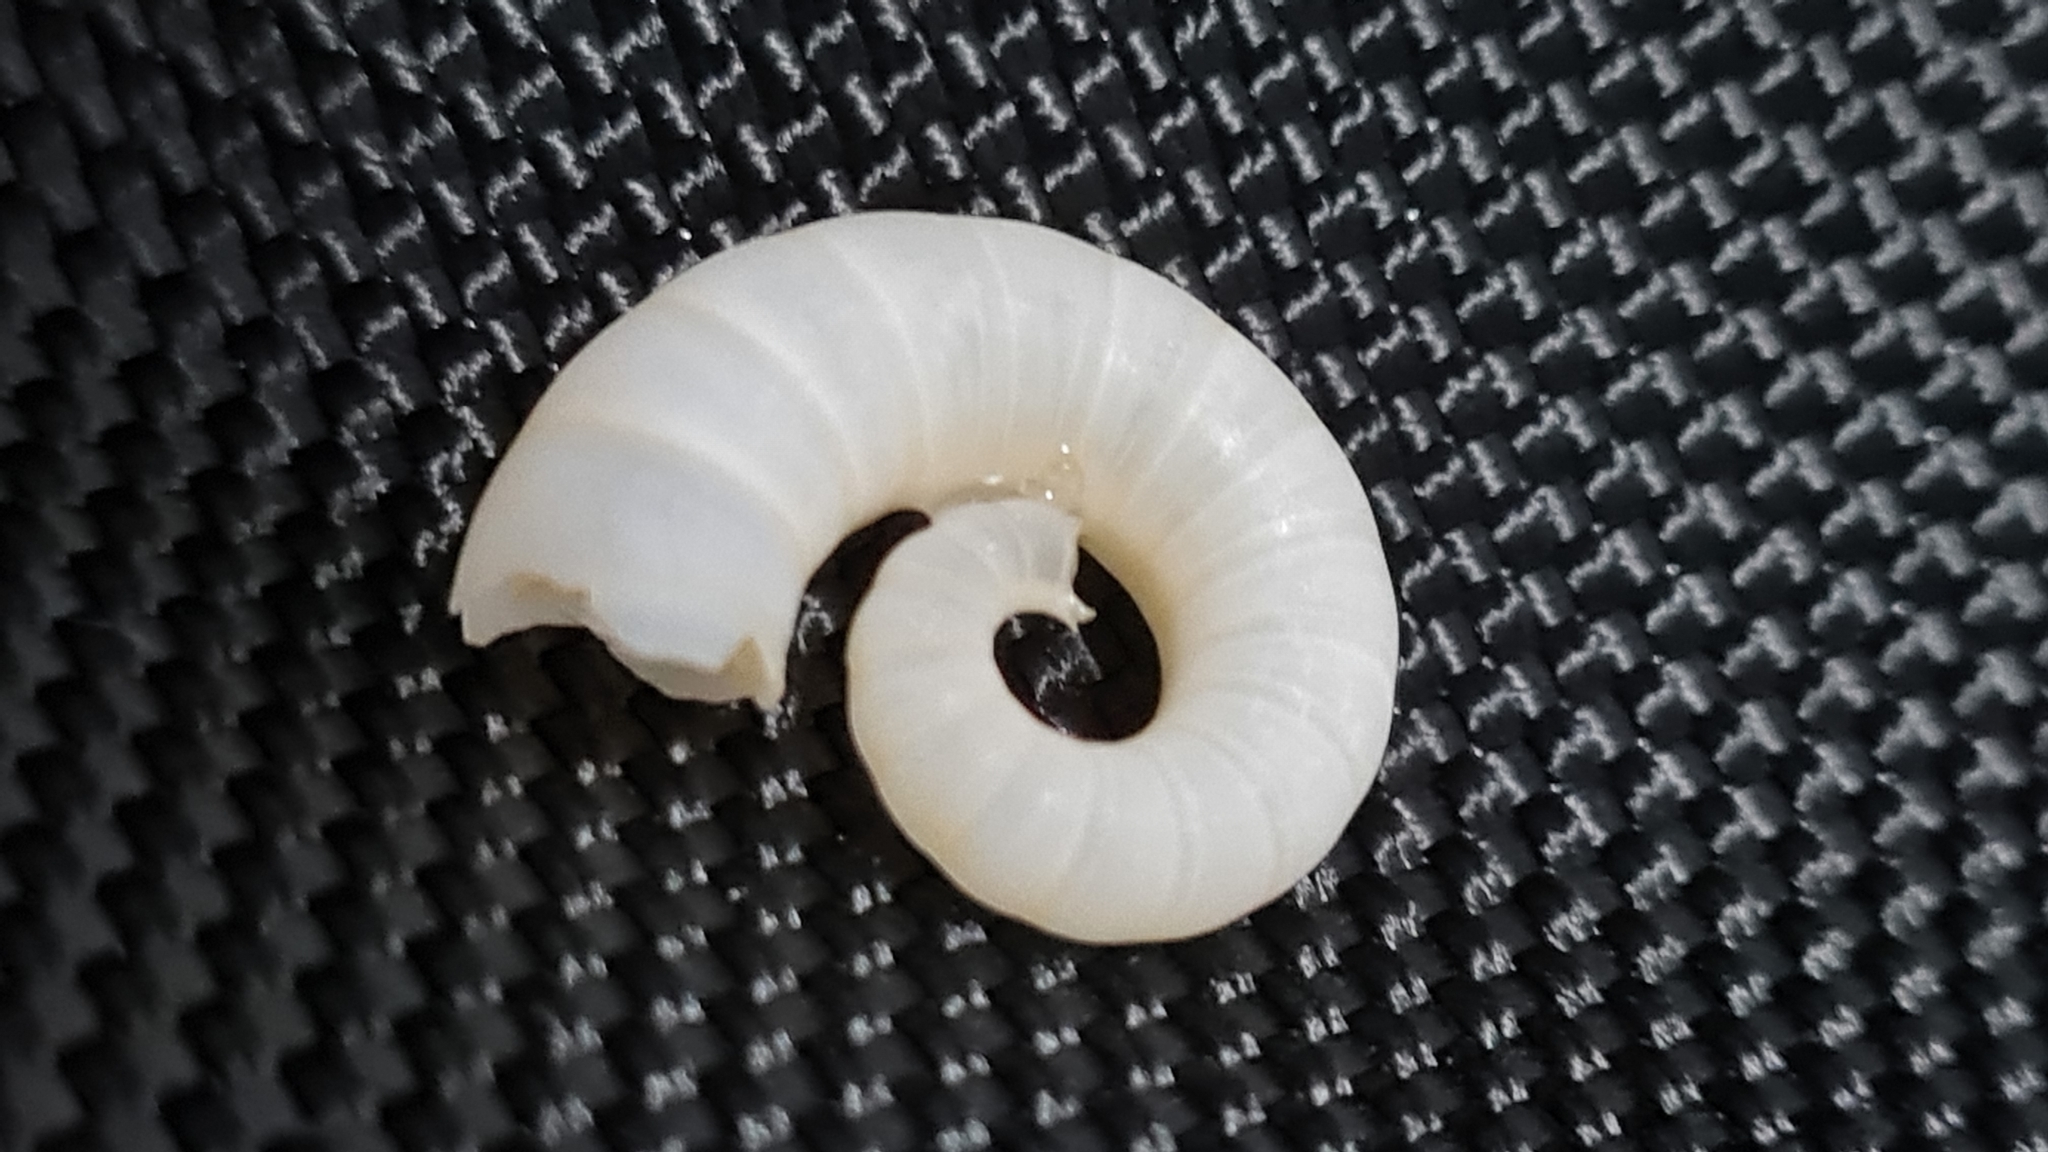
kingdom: Animalia
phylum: Mollusca
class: Cephalopoda
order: Spirulida
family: Spirulidae
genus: Spirula
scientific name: Spirula spirula
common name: Ram's horn squid
